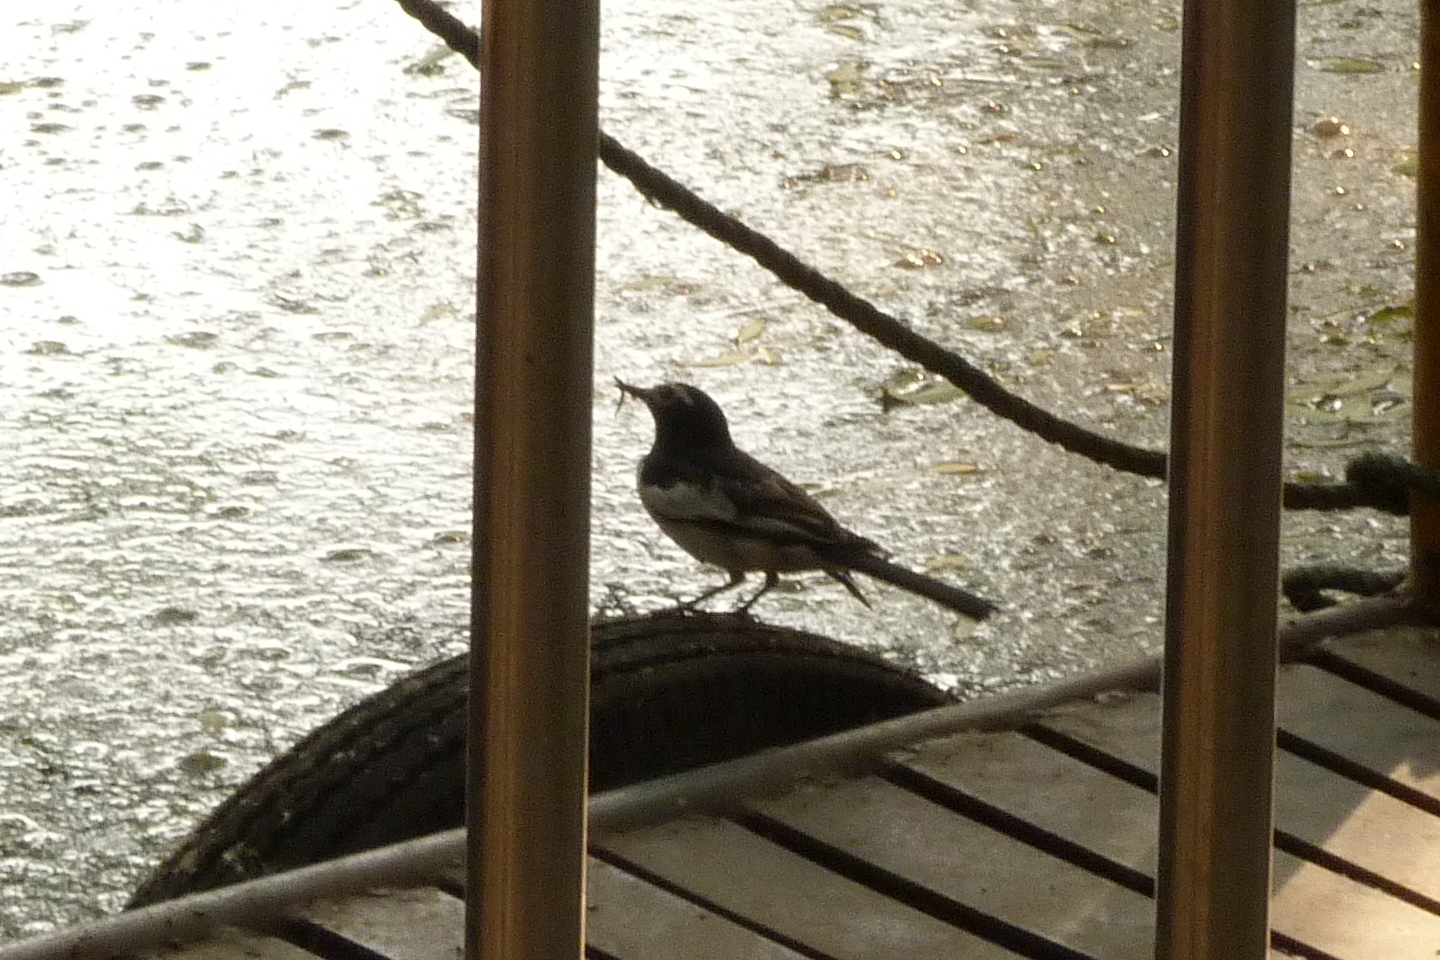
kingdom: Animalia
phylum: Chordata
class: Aves
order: Passeriformes
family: Motacillidae
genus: Motacilla
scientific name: Motacilla alba
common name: White wagtail
